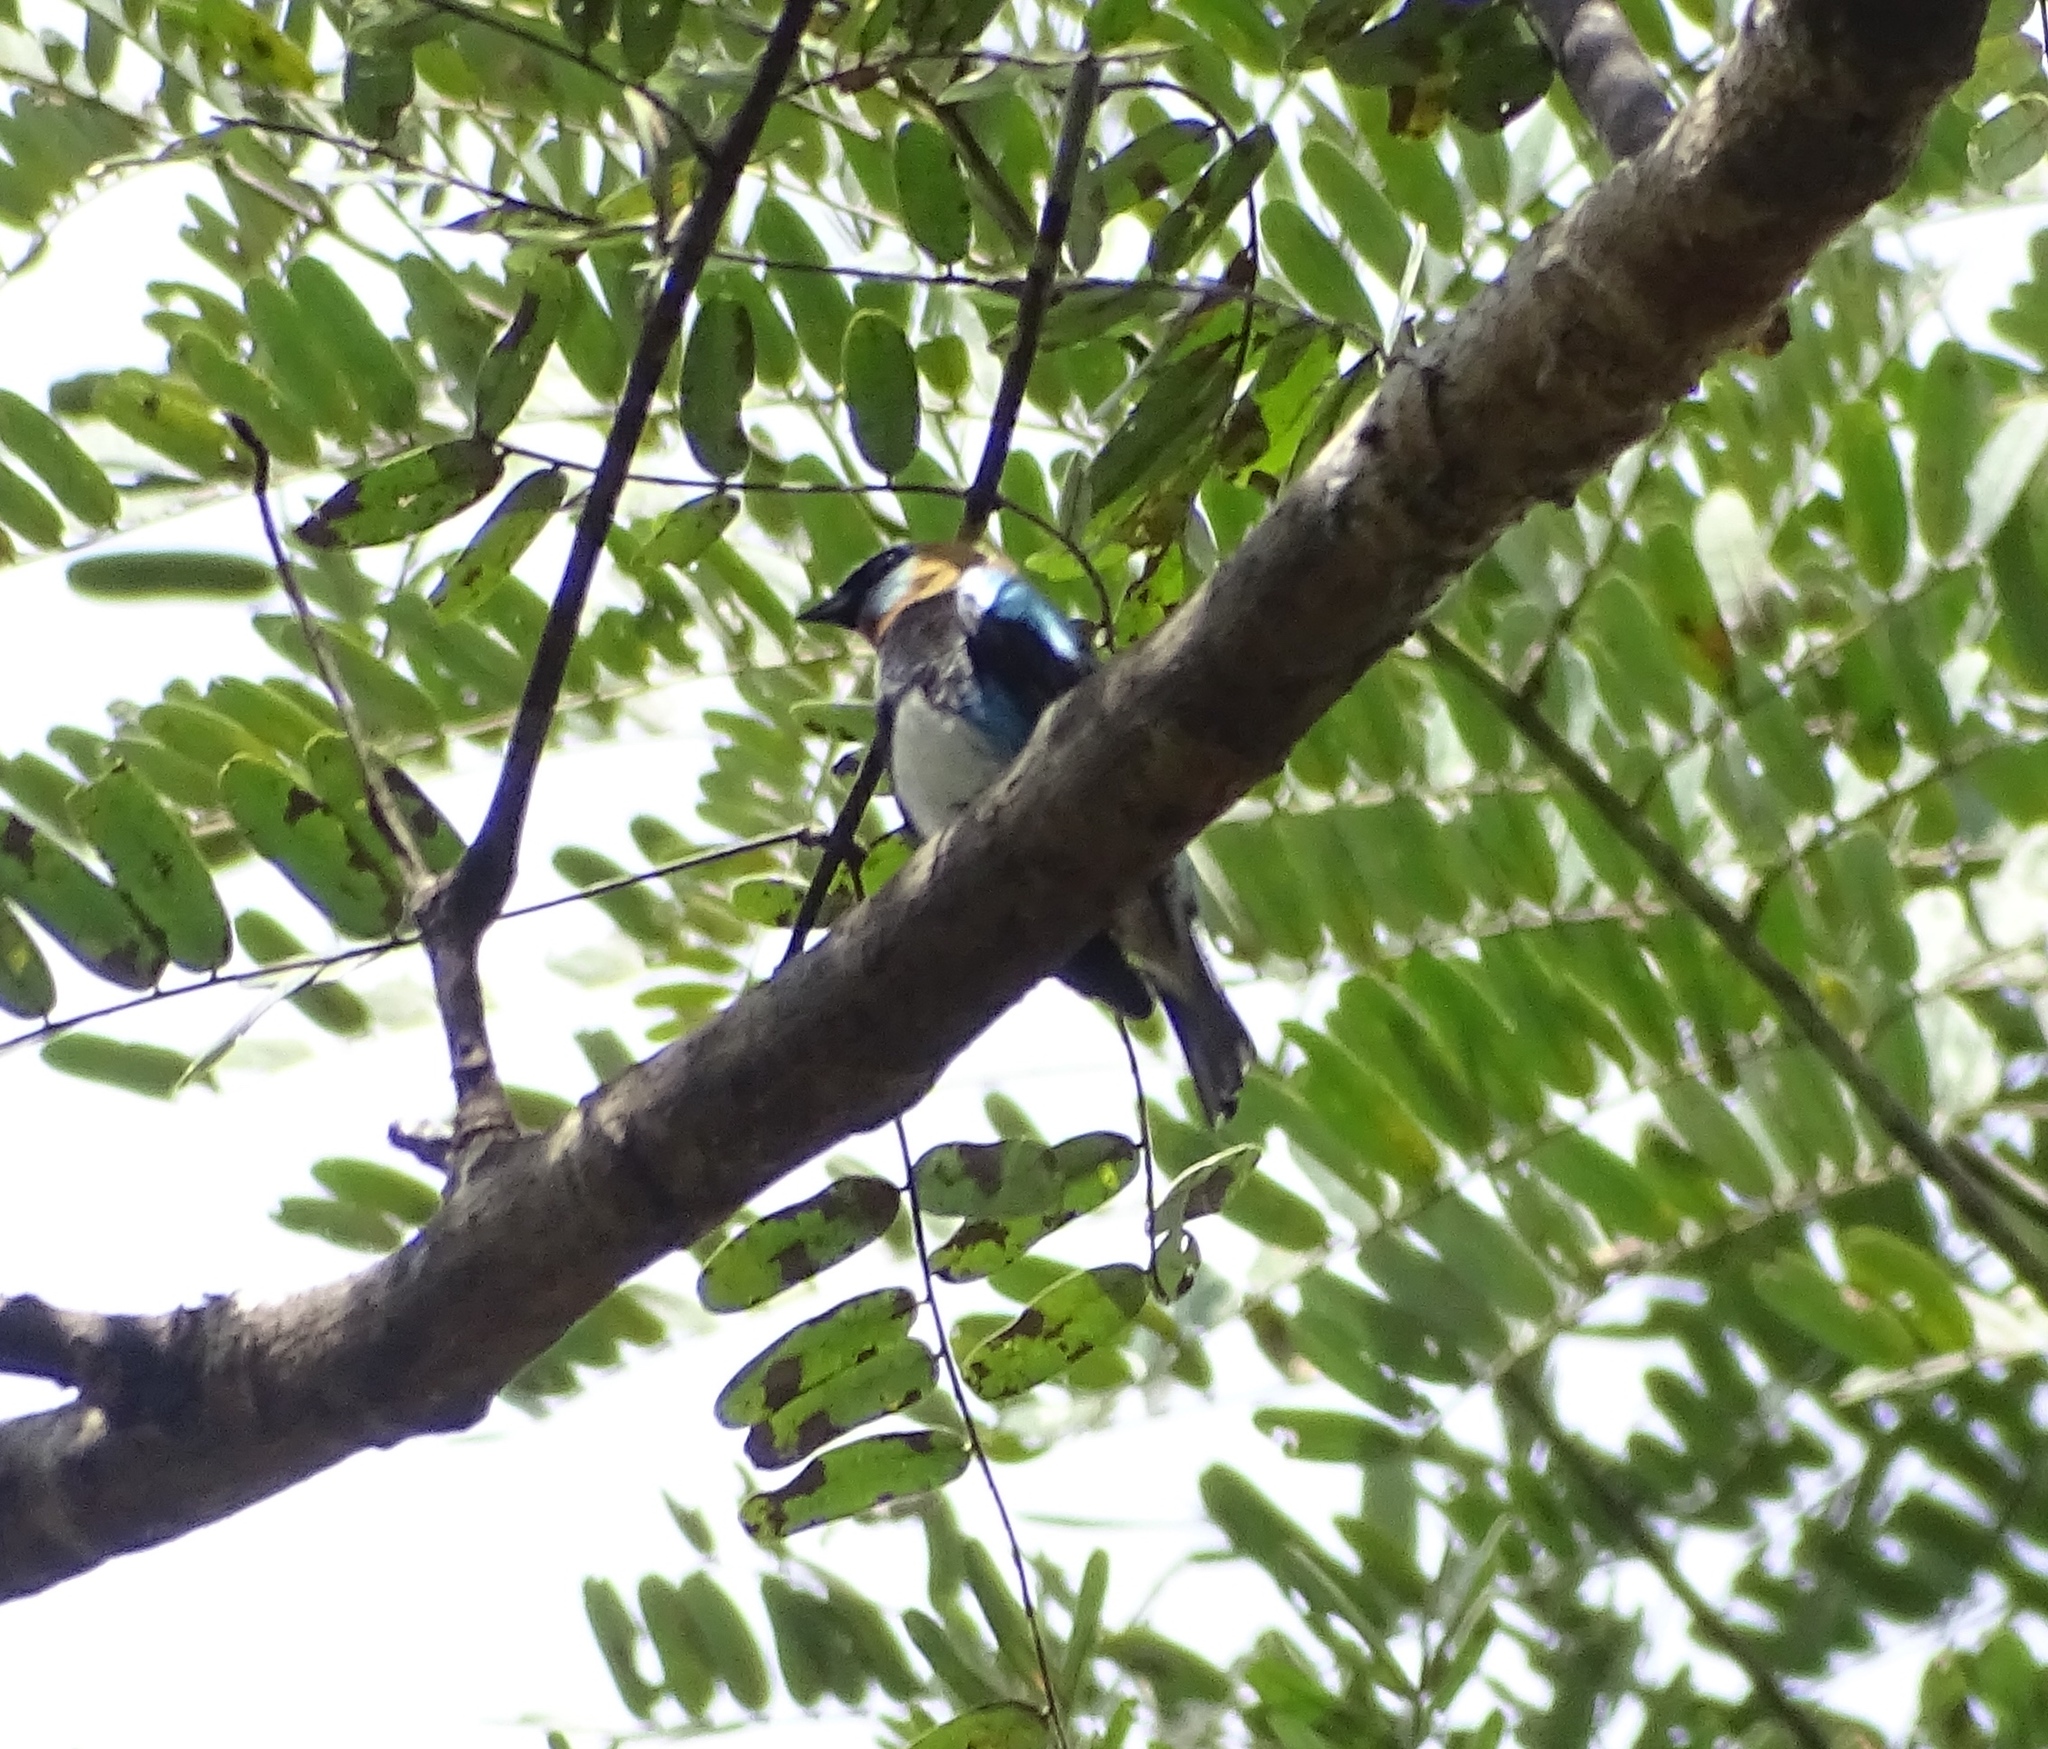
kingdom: Animalia
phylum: Chordata
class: Aves
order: Passeriformes
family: Thraupidae
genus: Stilpnia
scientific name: Stilpnia larvata
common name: Golden-hooded tanager
